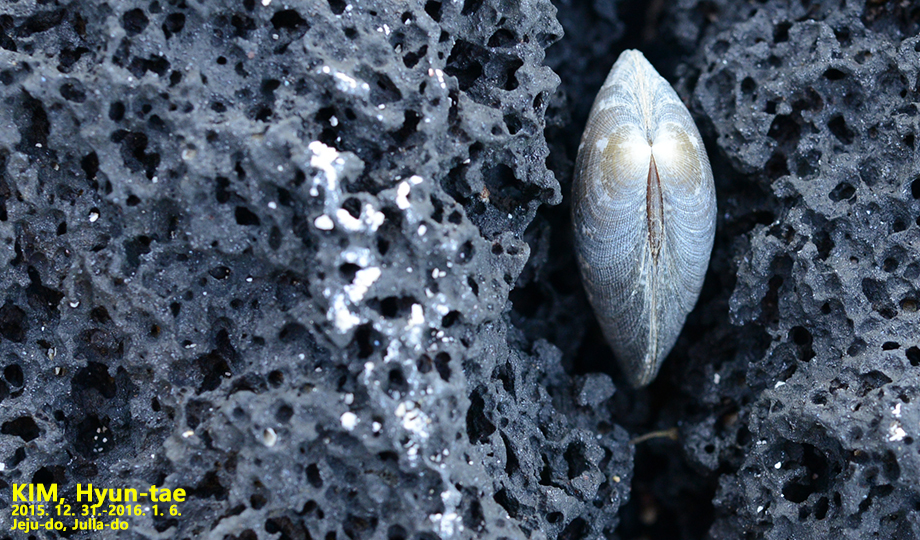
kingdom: Animalia
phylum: Mollusca
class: Bivalvia
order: Venerida
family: Veneridae
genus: Ruditapes
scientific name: Ruditapes philippinarum
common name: Manila clam
